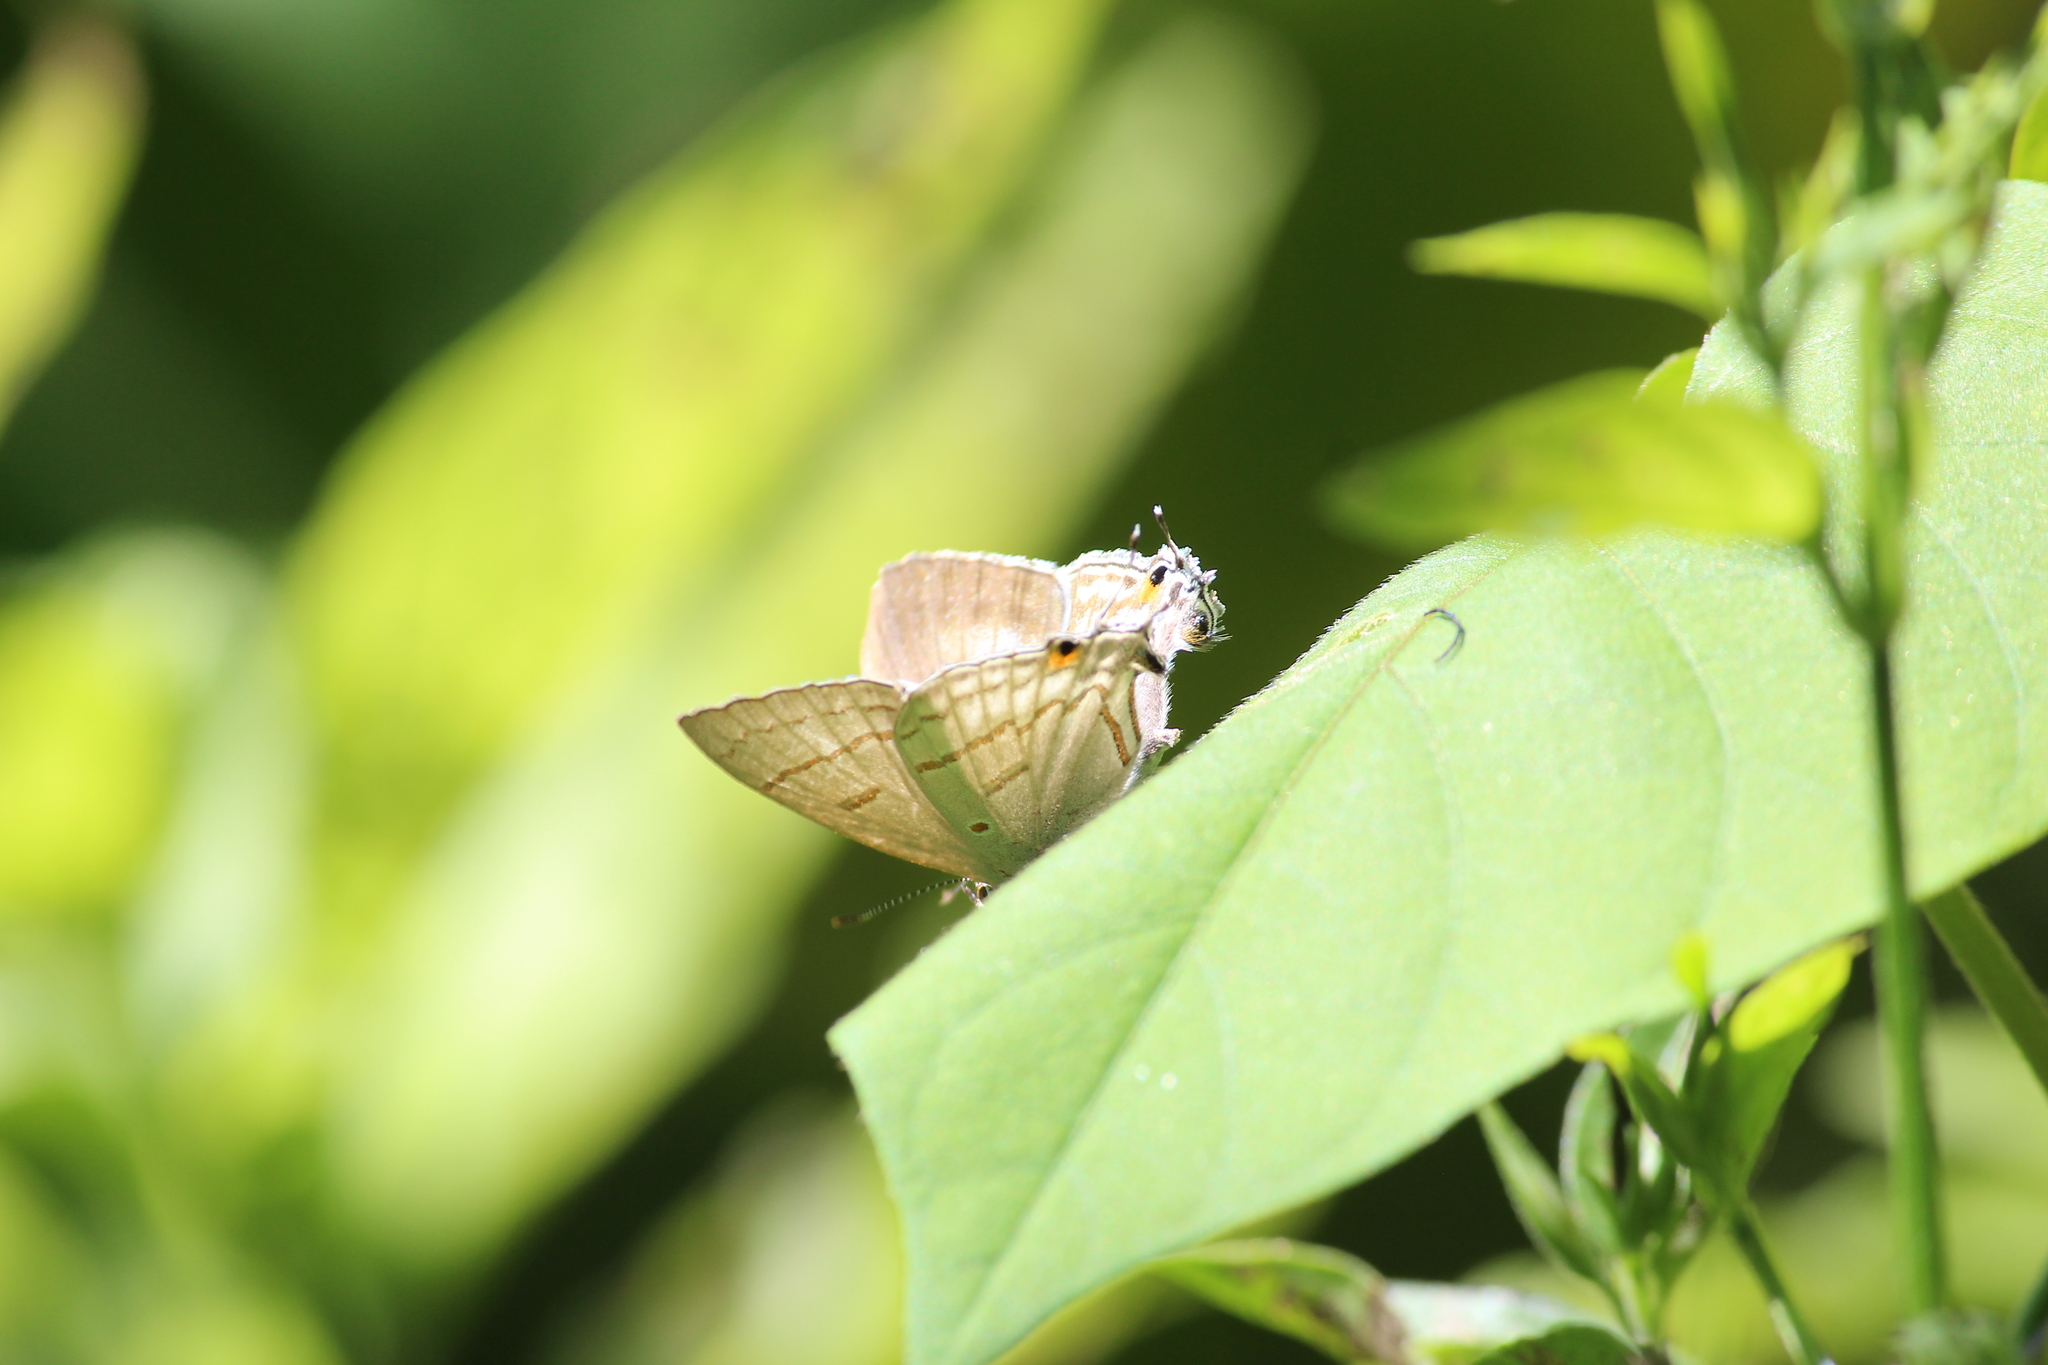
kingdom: Animalia
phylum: Arthropoda
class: Insecta
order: Lepidoptera
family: Lycaenidae
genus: Hypolycaena
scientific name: Hypolycaena philippus
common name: Common hairstreak
